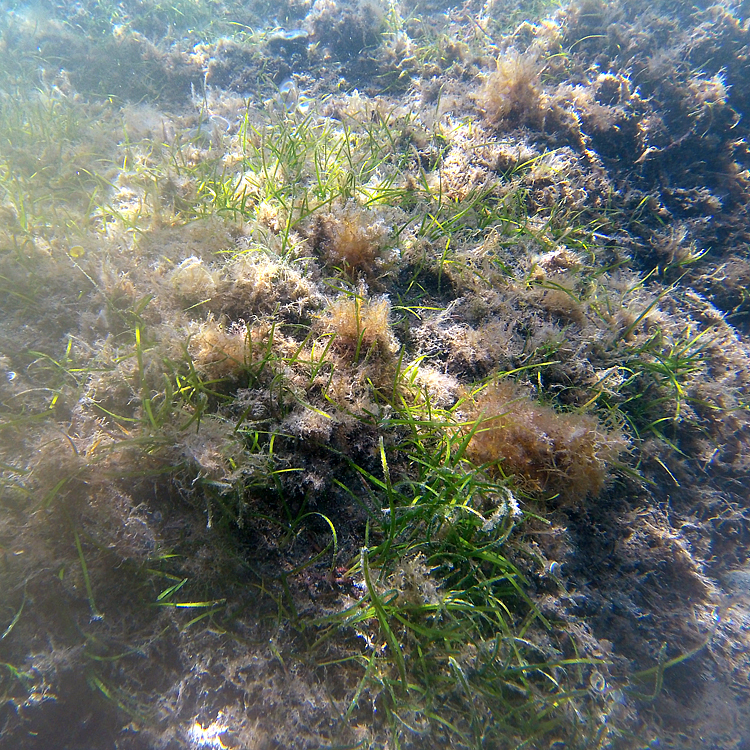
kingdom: Plantae
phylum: Tracheophyta
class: Liliopsida
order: Alismatales
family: Cymodoceaceae
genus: Cymodocea
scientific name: Cymodocea nodosa
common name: Slender seagrass
